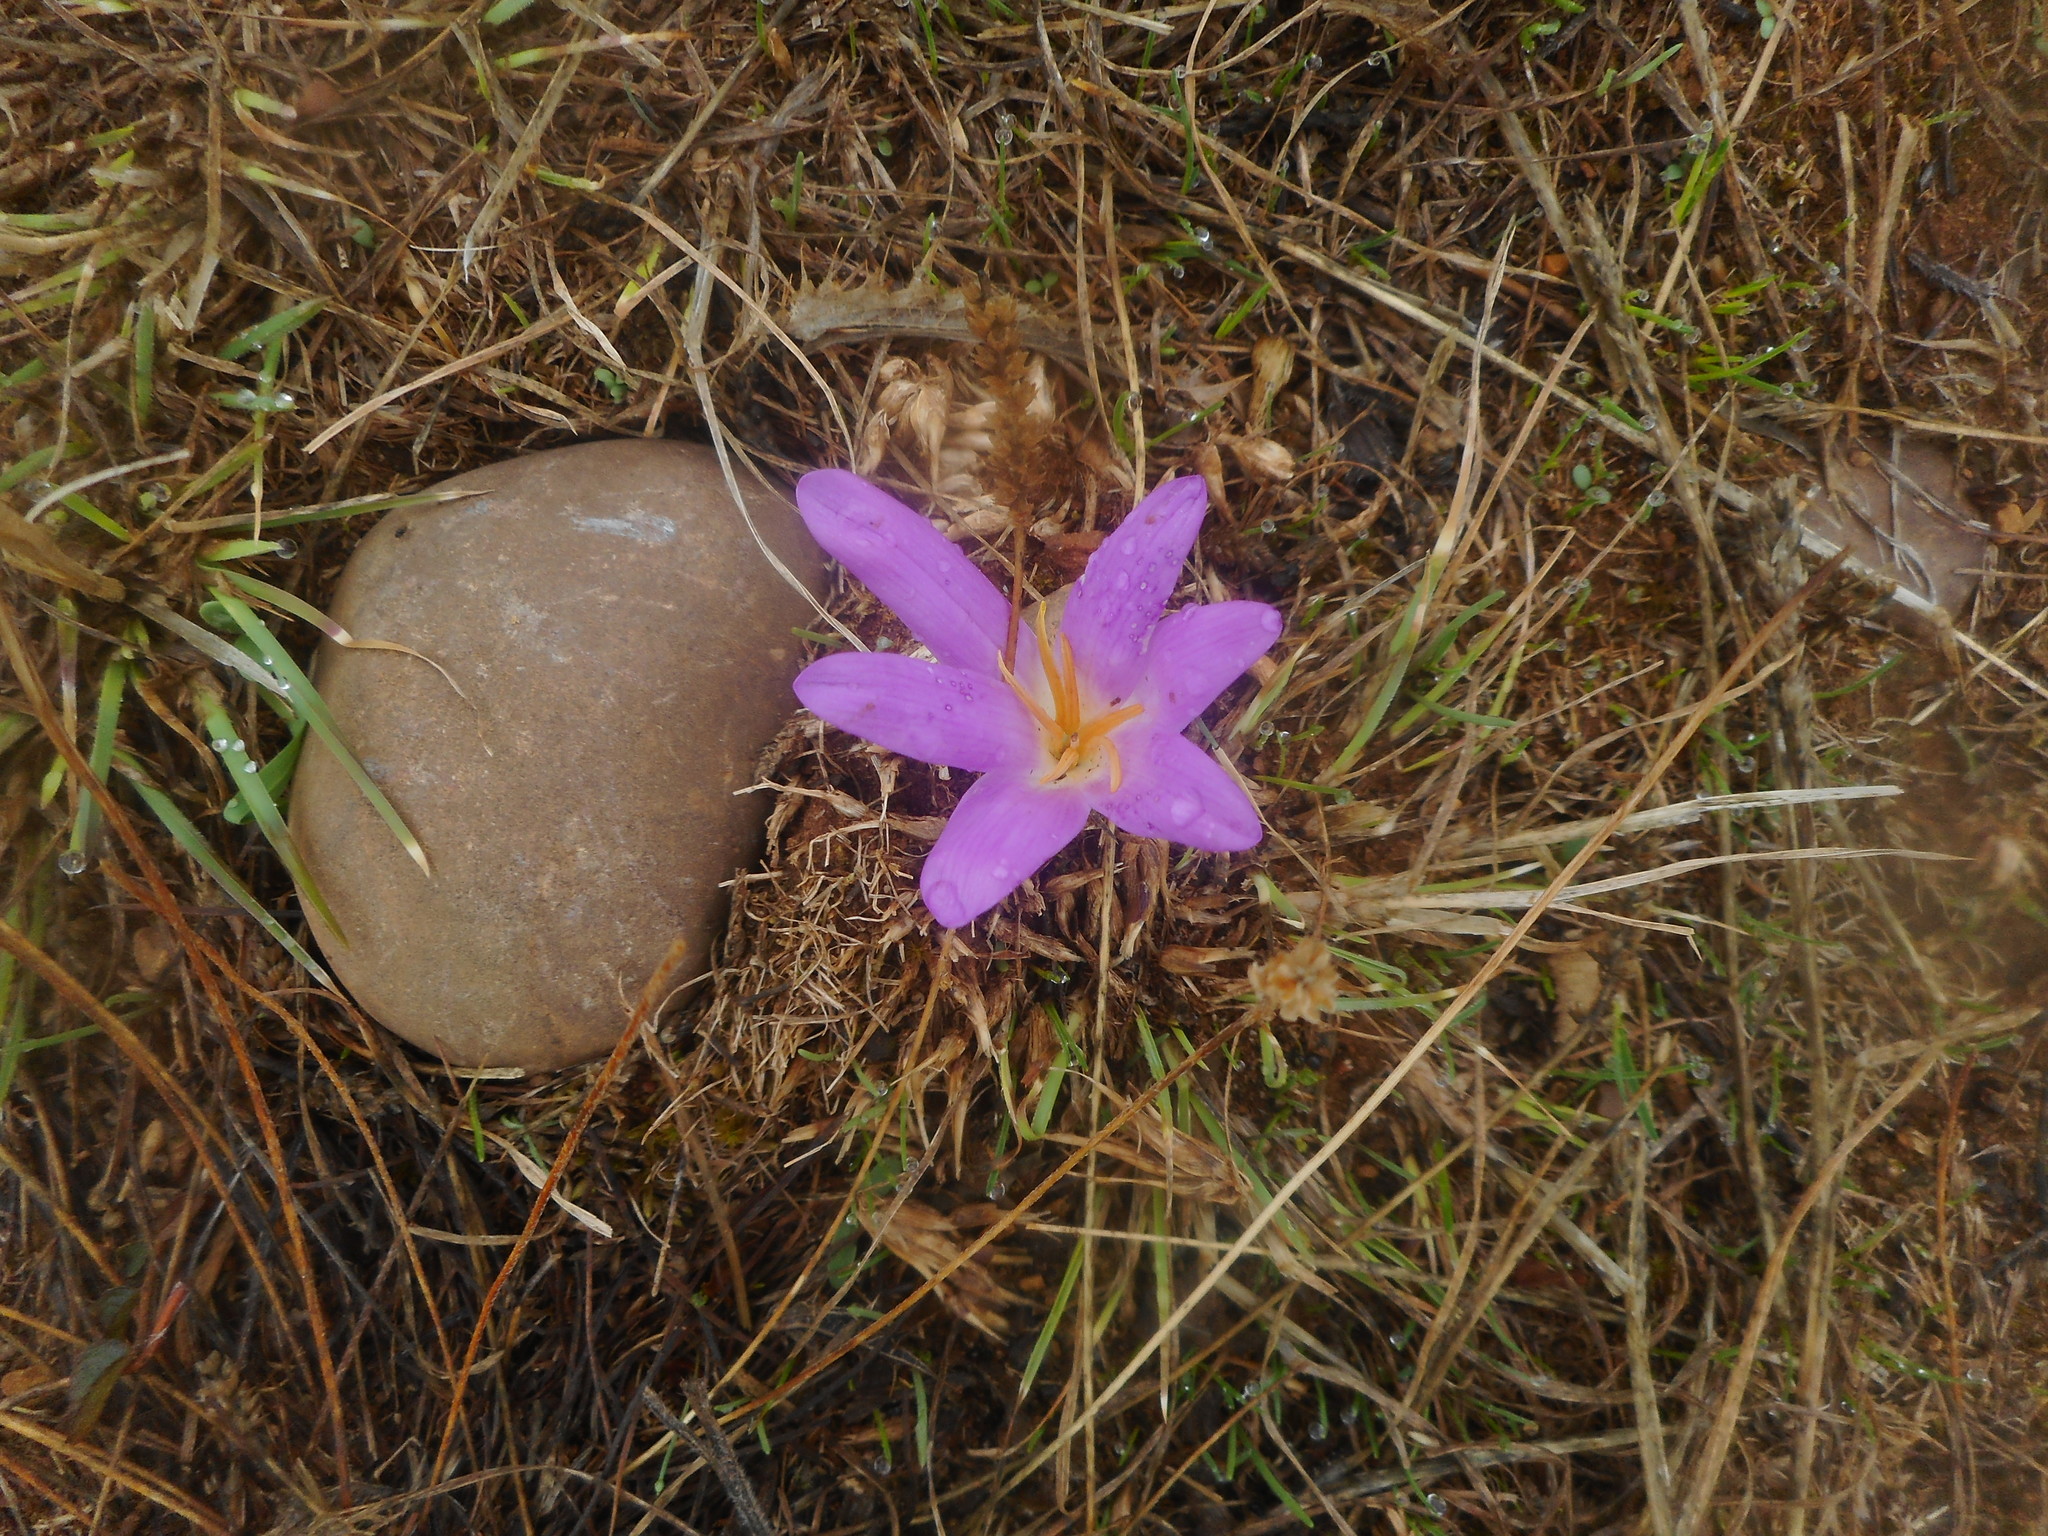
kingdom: Plantae
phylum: Tracheophyta
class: Liliopsida
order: Liliales
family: Colchicaceae
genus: Colchicum
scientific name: Colchicum montanum
